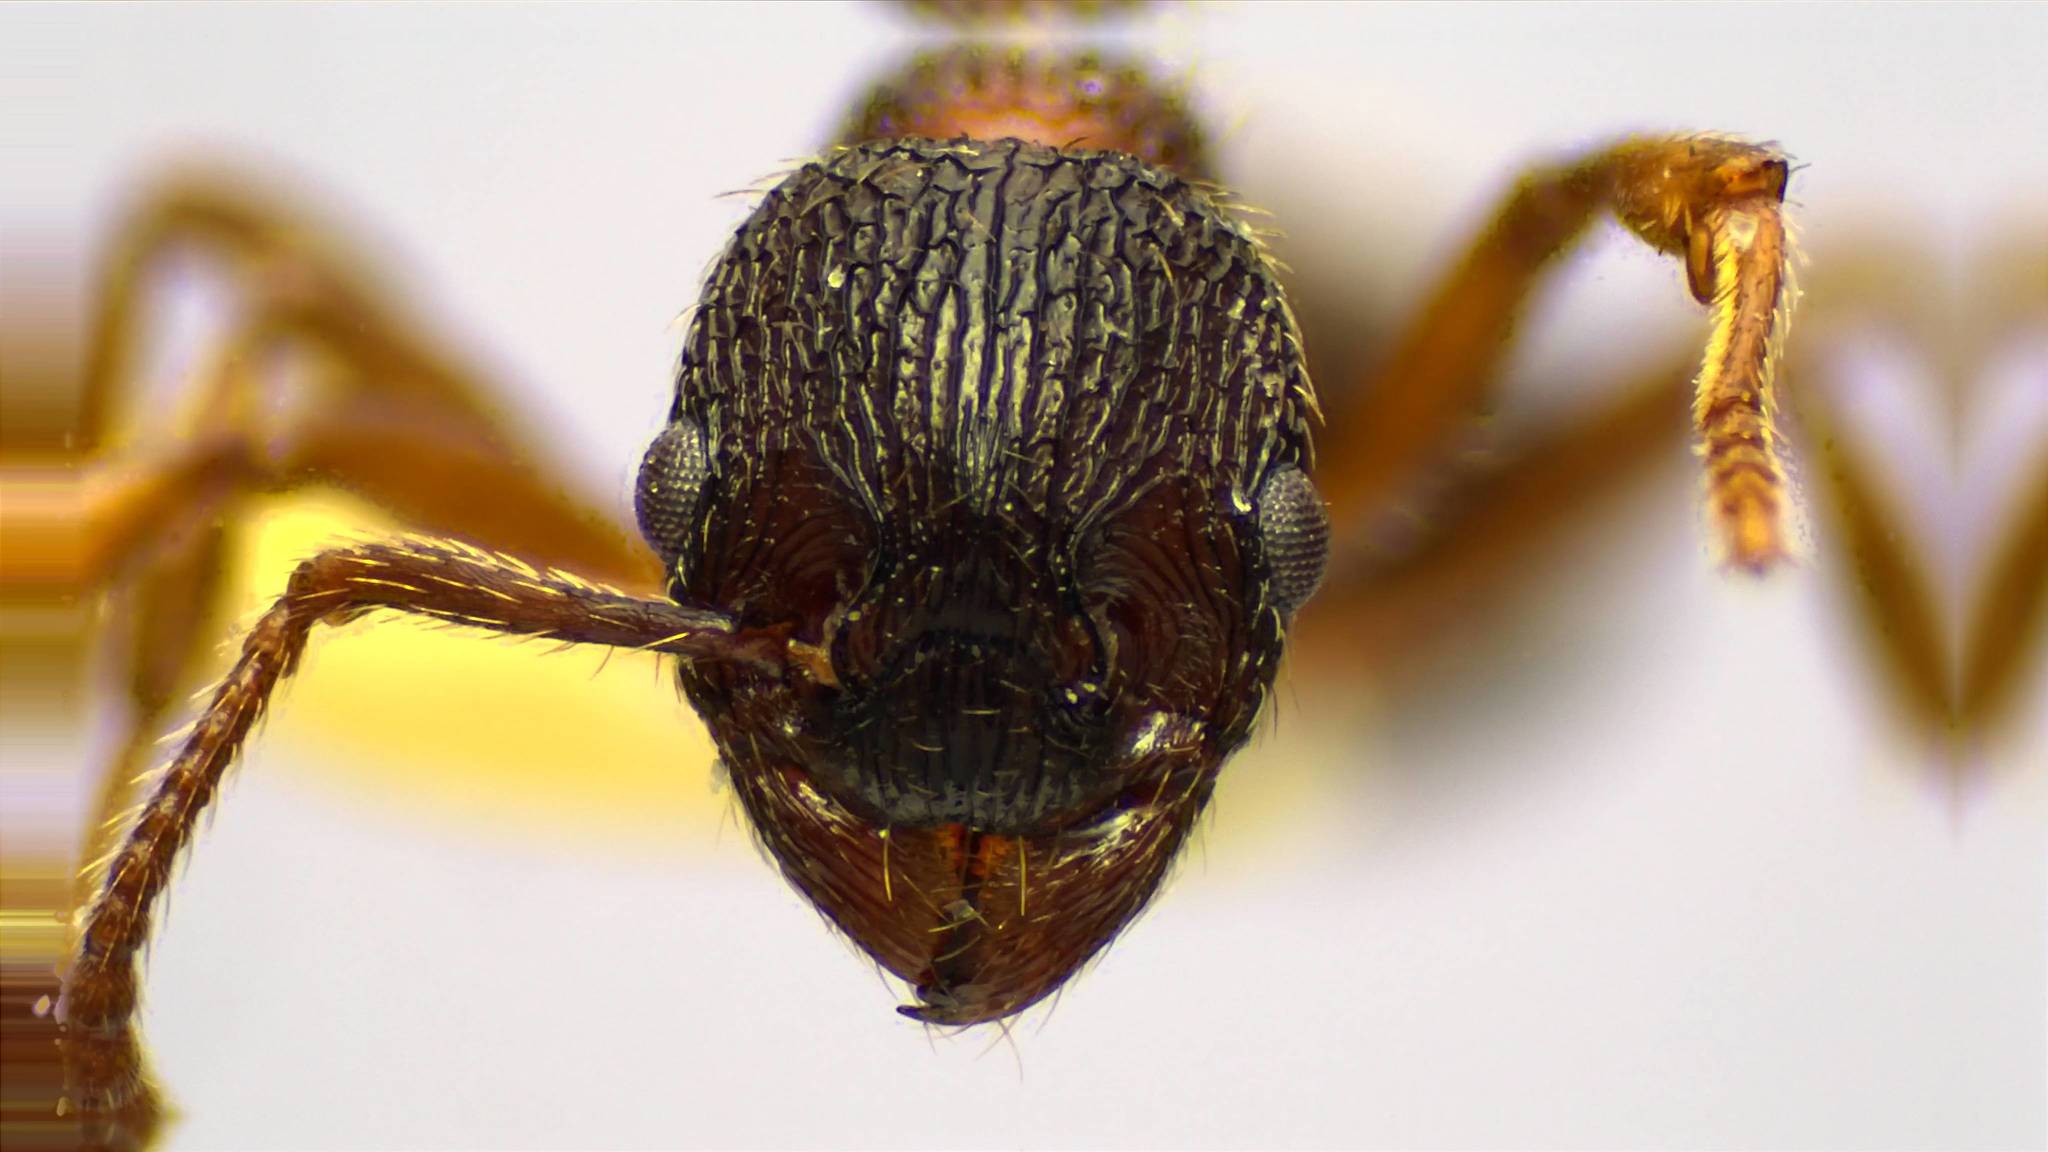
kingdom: Animalia
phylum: Arthropoda
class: Insecta
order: Hymenoptera
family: Formicidae
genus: Myrmica
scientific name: Myrmica latifrons
